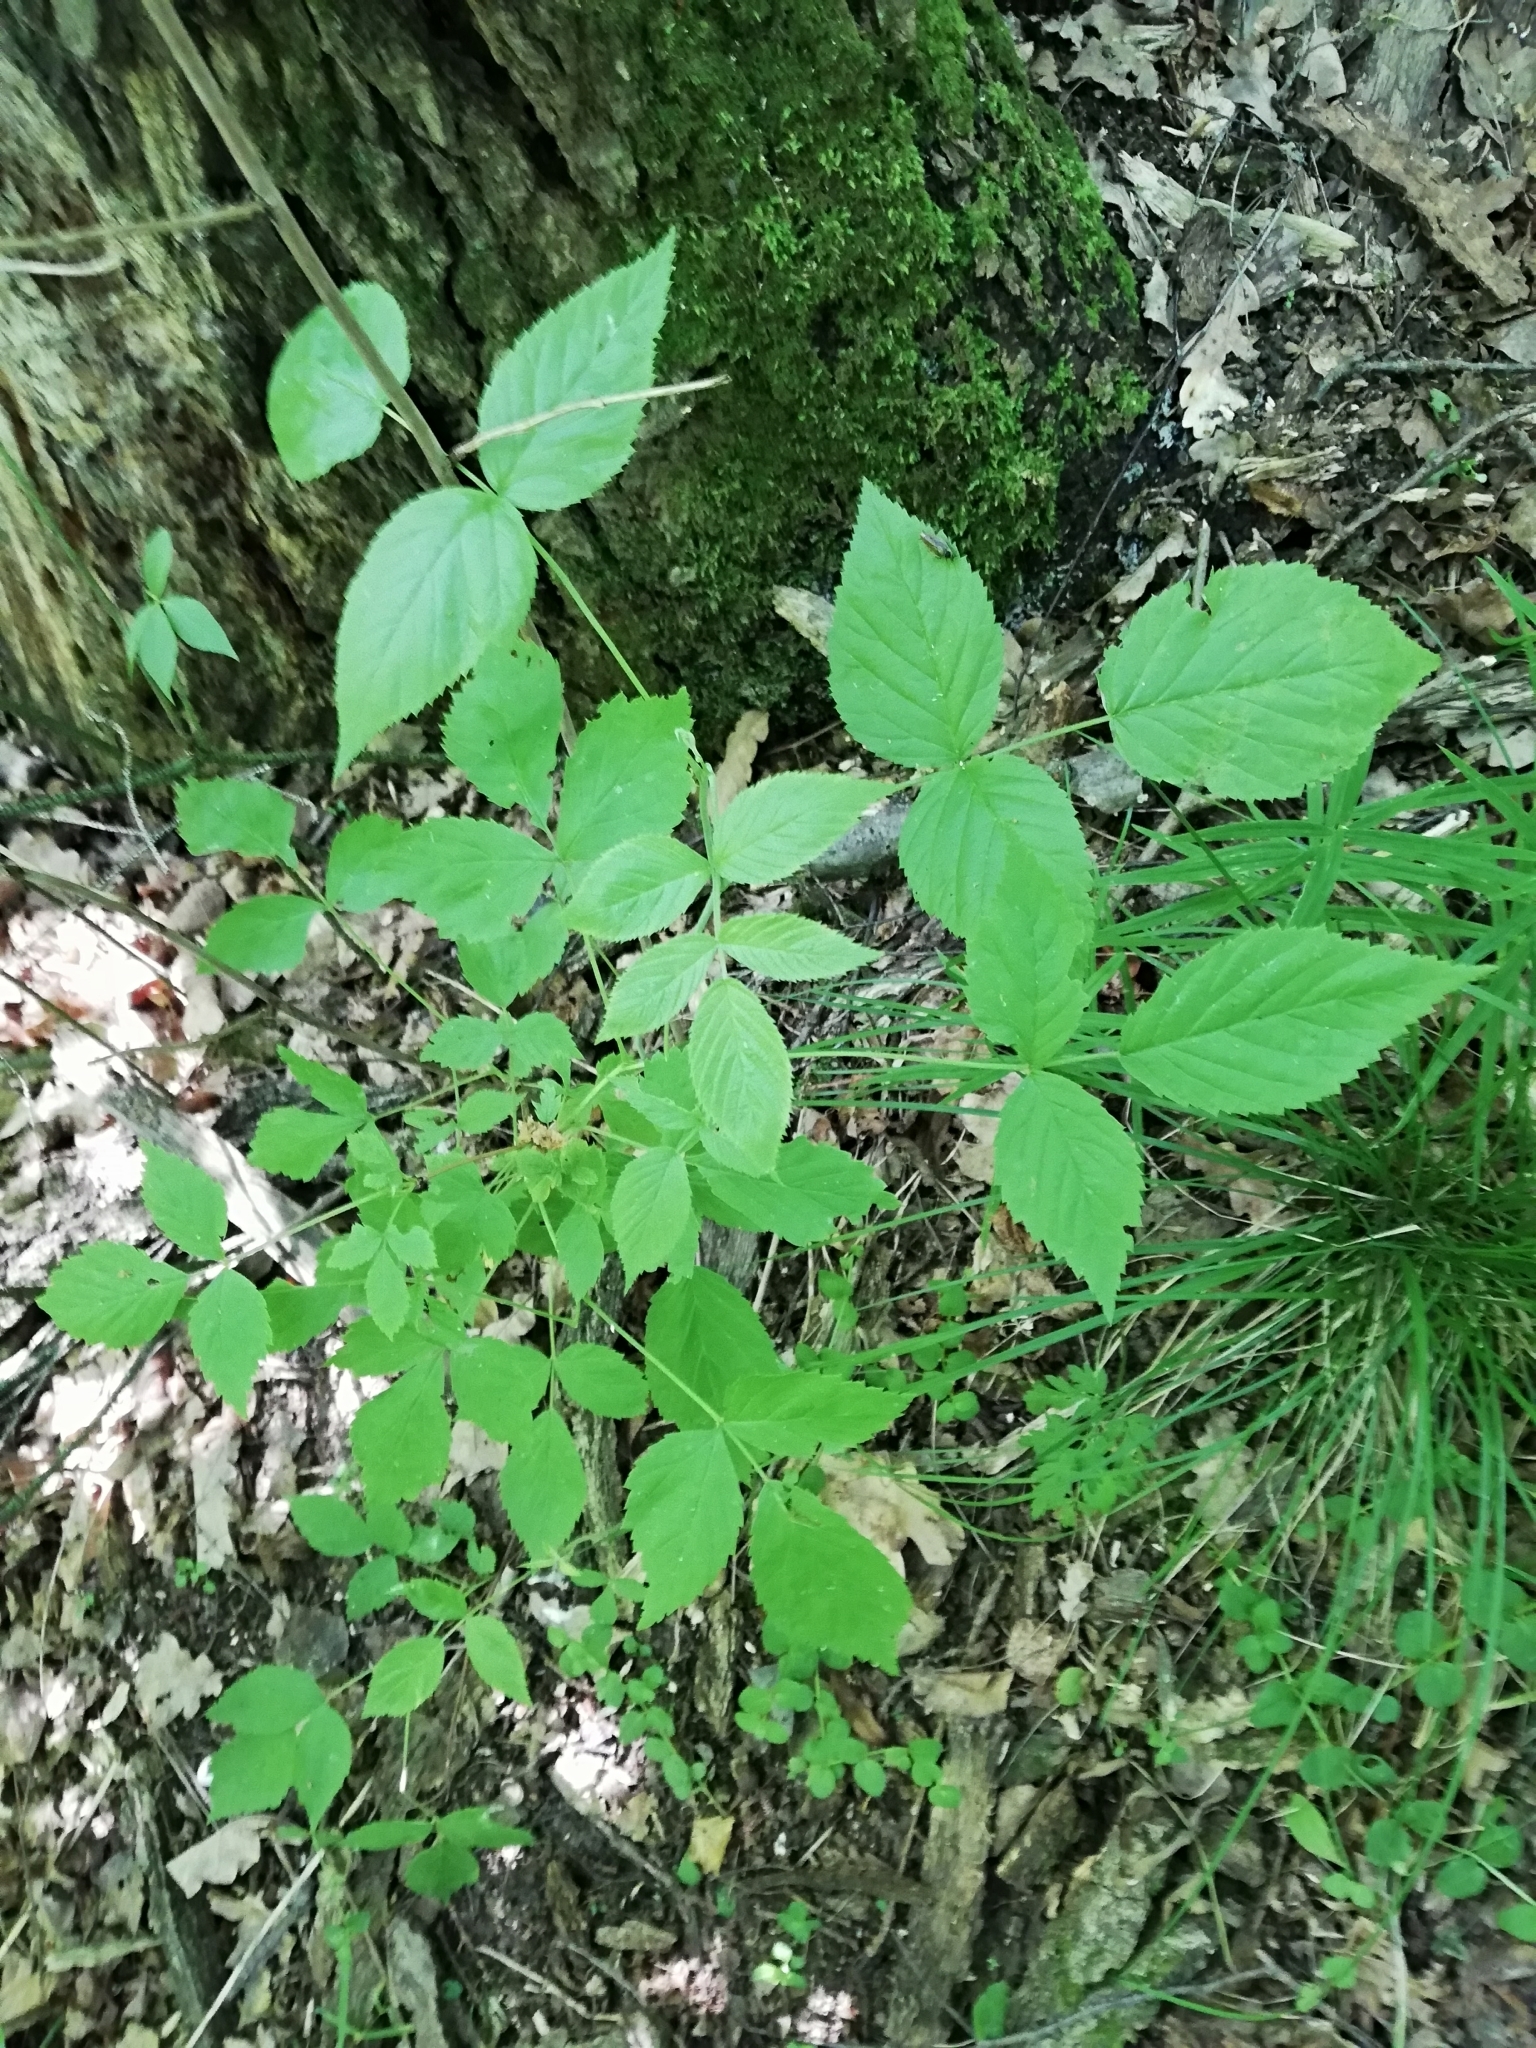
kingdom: Plantae
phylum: Tracheophyta
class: Magnoliopsida
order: Rosales
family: Rosaceae
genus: Rubus
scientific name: Rubus idaeus
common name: Raspberry
